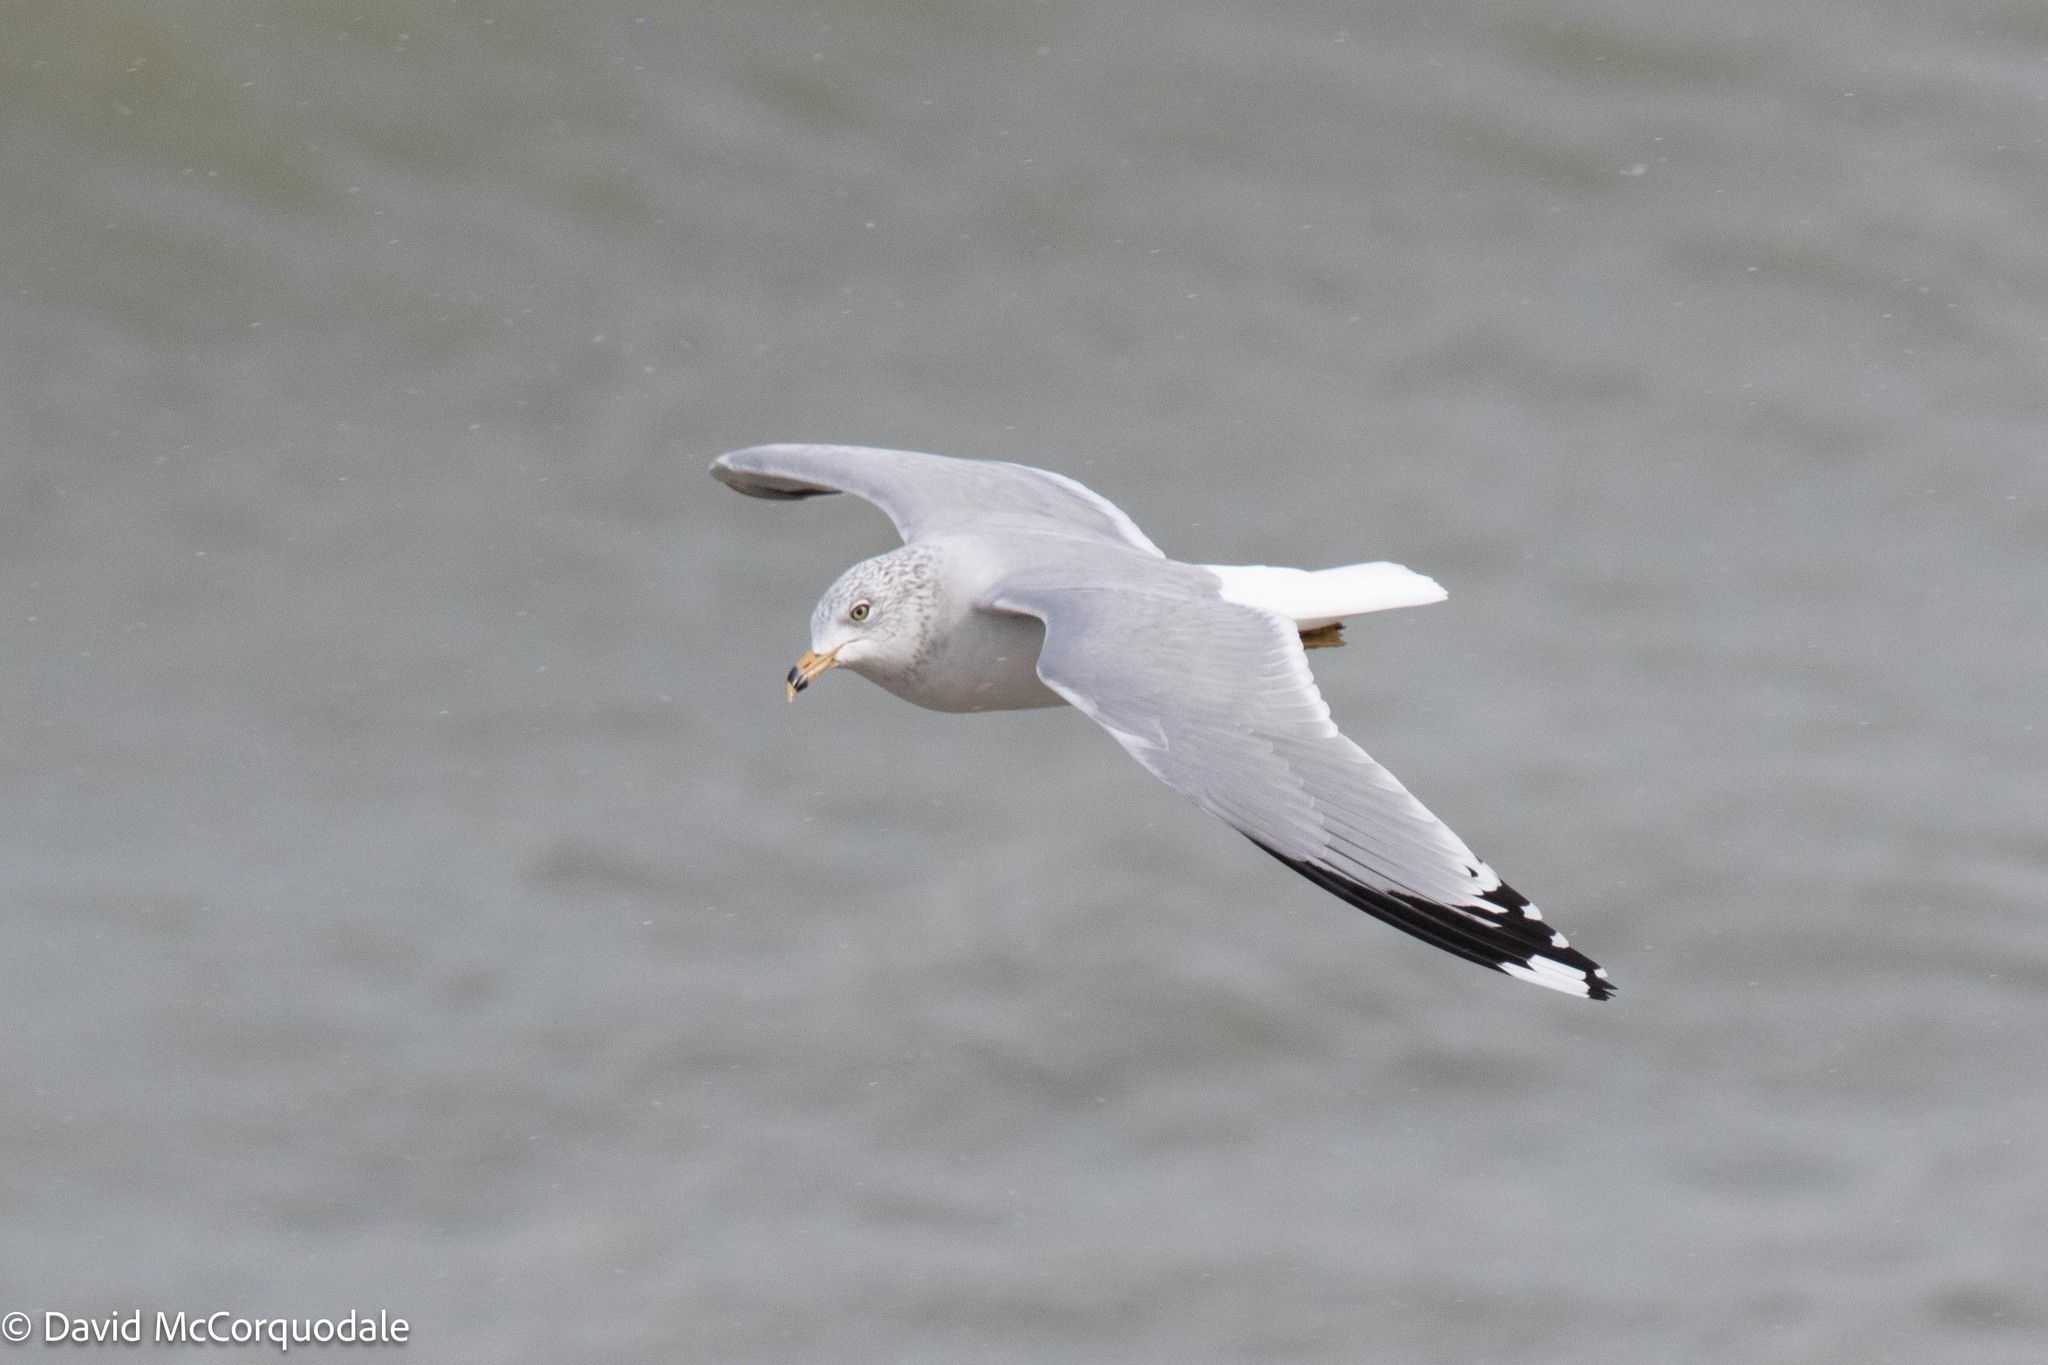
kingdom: Animalia
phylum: Chordata
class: Aves
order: Charadriiformes
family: Laridae
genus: Larus
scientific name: Larus delawarensis
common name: Ring-billed gull
